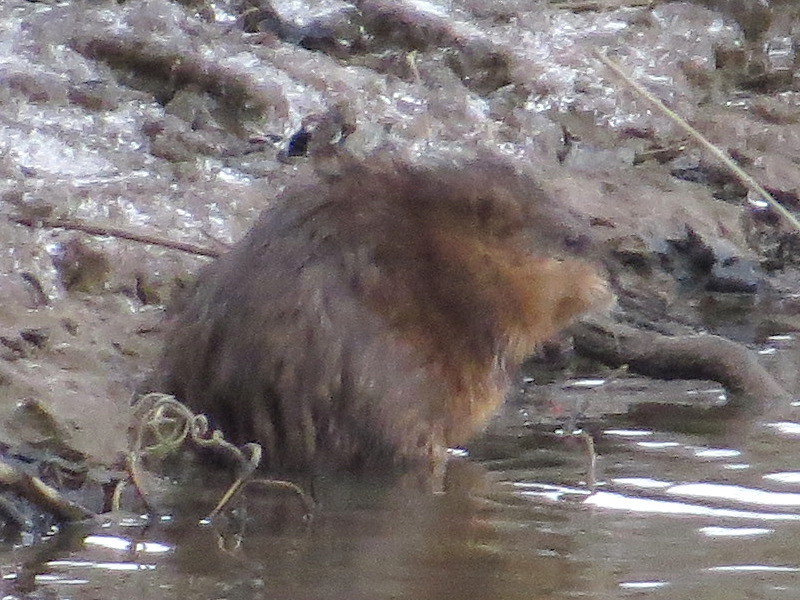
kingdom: Animalia
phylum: Chordata
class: Mammalia
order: Rodentia
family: Cricetidae
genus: Ondatra
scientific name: Ondatra zibethicus
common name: Muskrat
